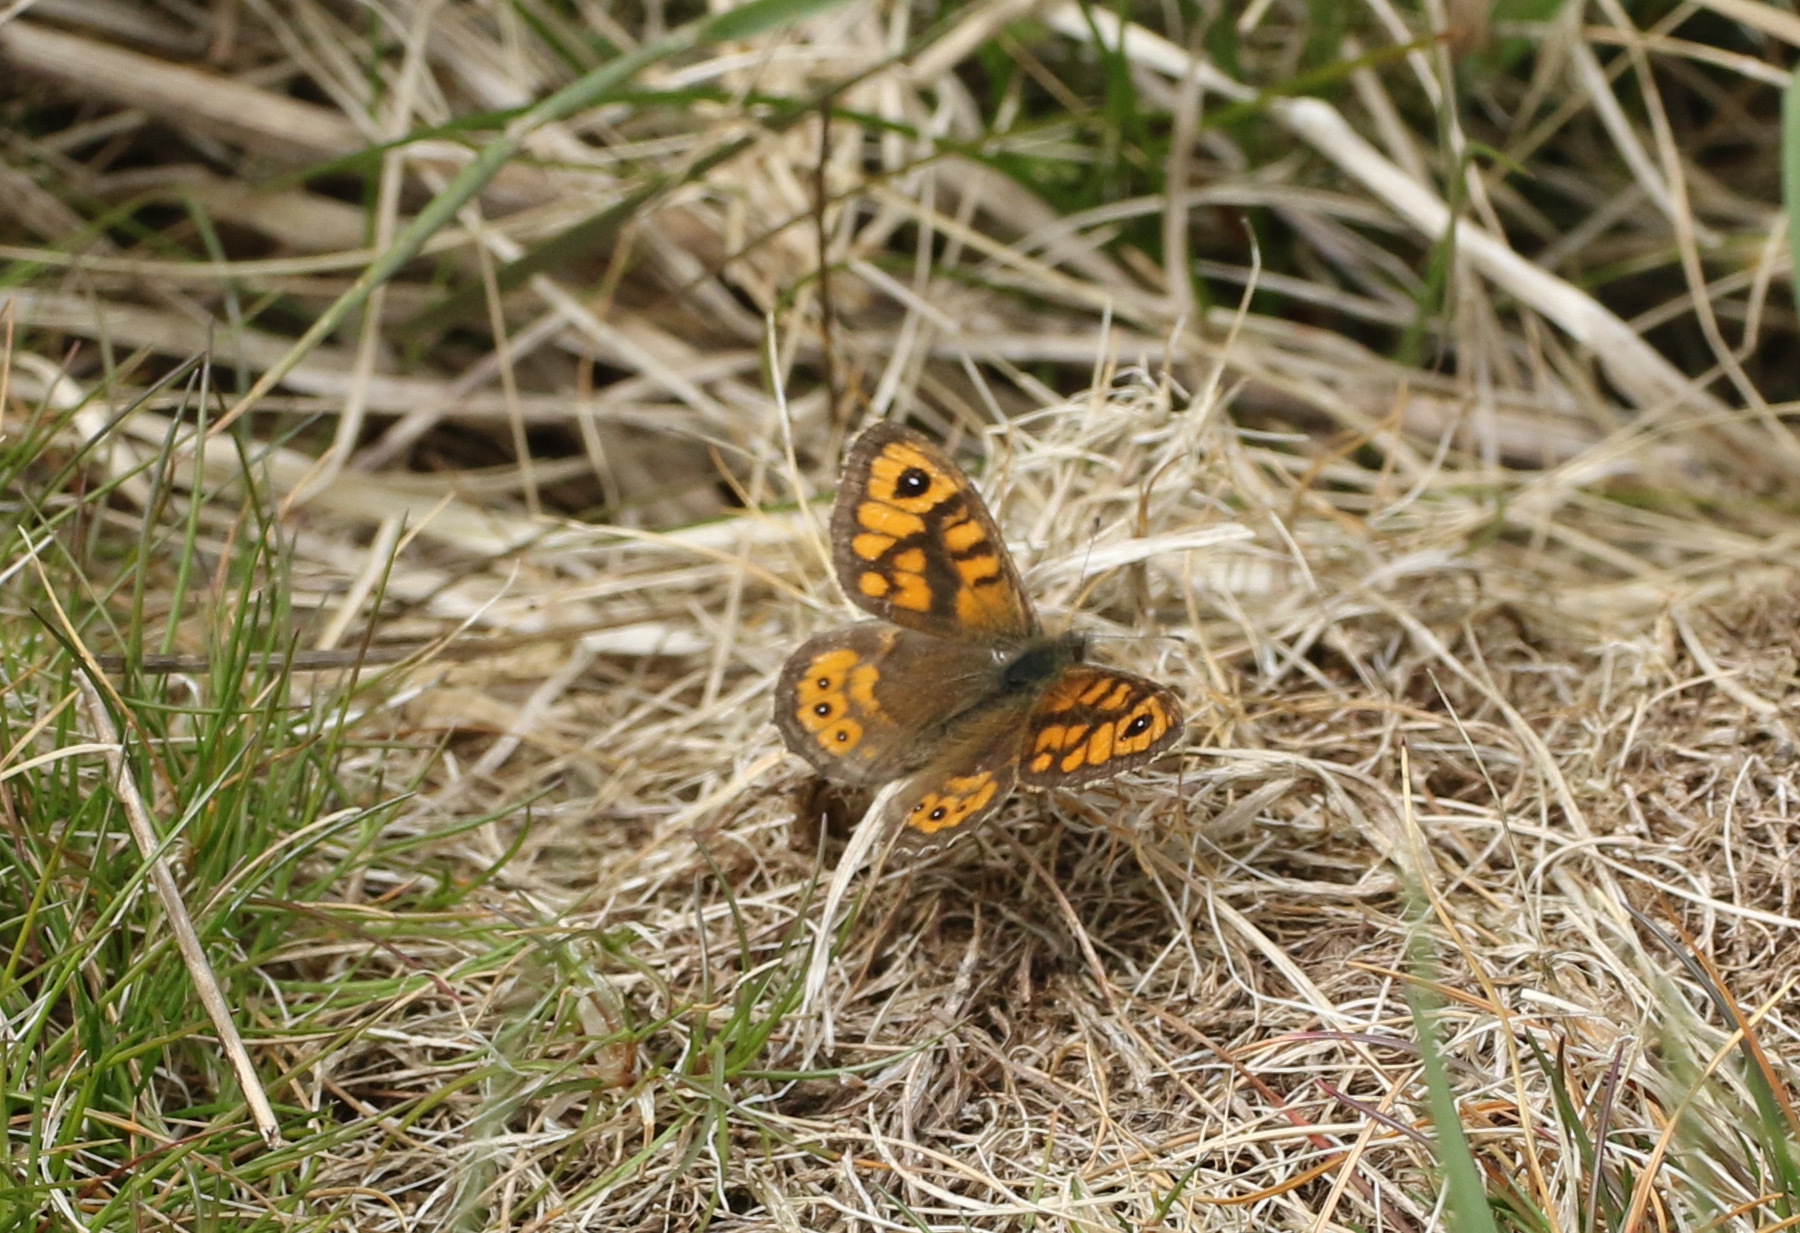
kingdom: Animalia
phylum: Arthropoda
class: Insecta
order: Lepidoptera
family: Nymphalidae
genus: Pararge
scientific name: Pararge Lasiommata megera
